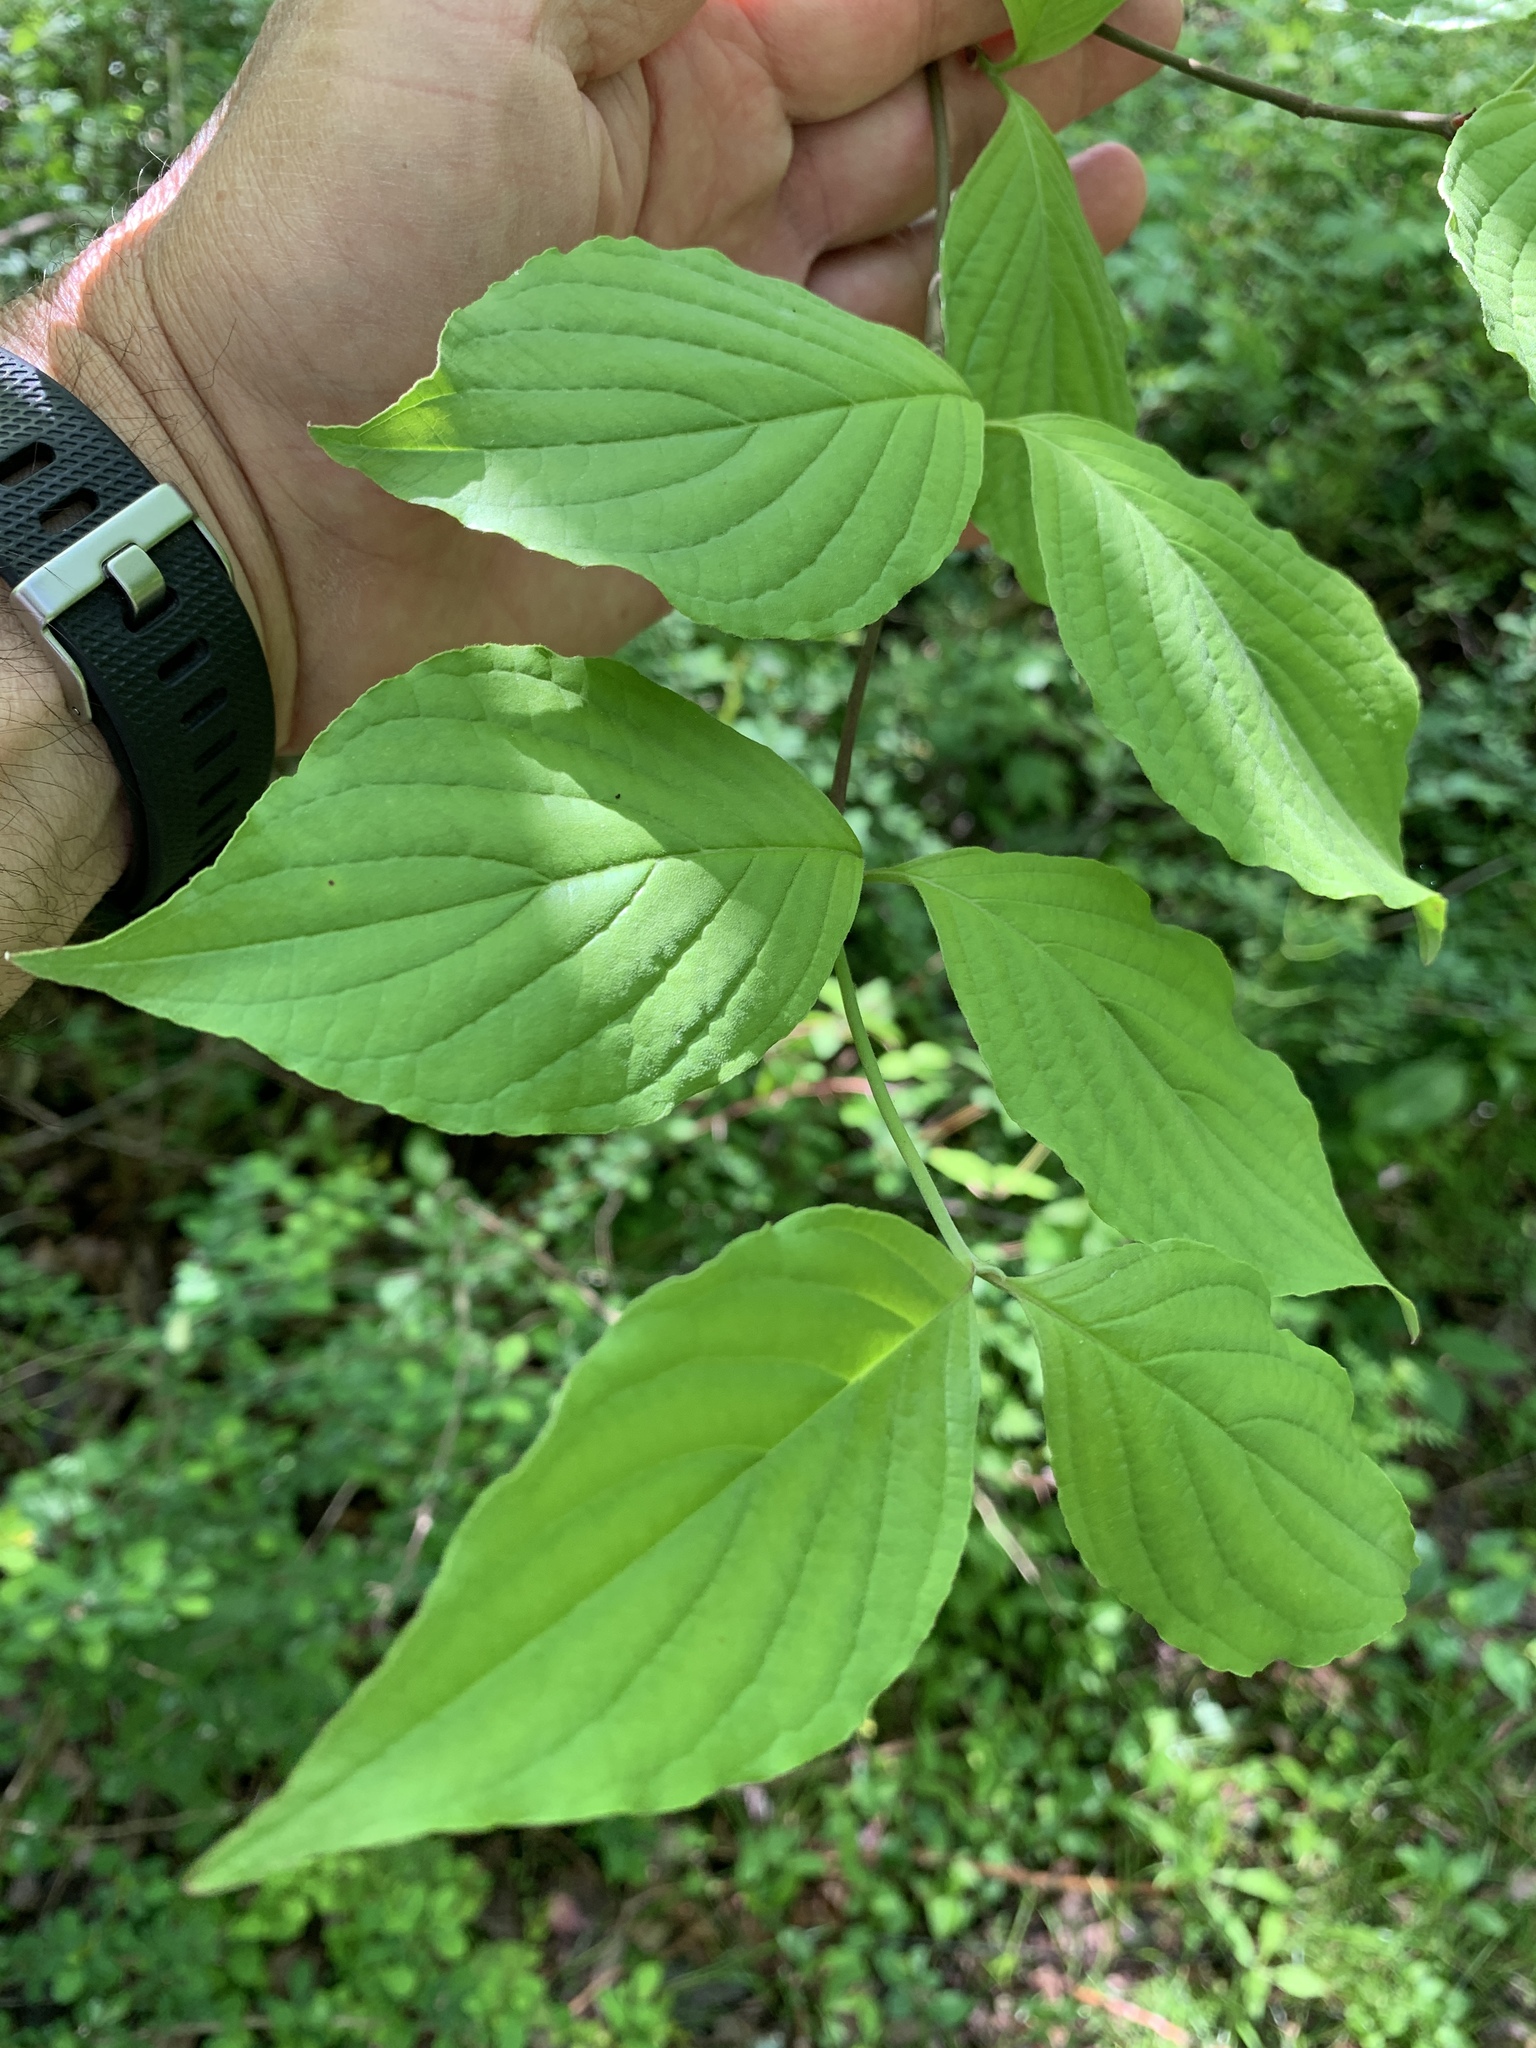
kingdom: Plantae
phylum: Tracheophyta
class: Magnoliopsida
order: Cornales
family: Cornaceae
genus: Cornus
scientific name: Cornus florida
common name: Flowering dogwood
